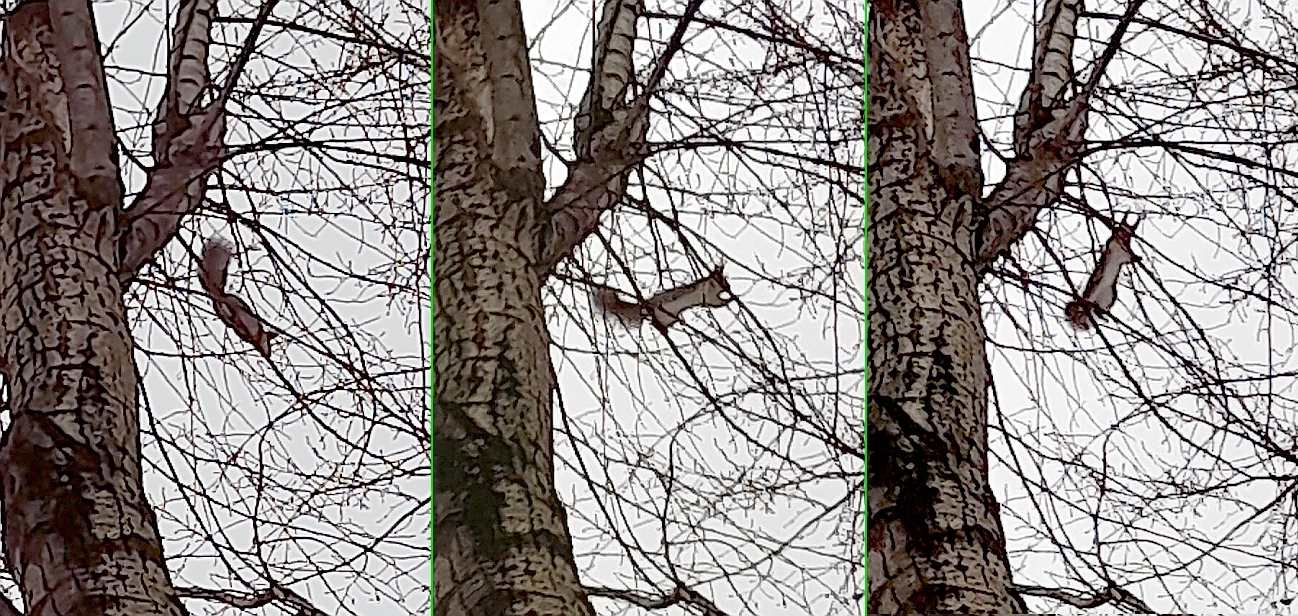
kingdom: Animalia
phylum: Chordata
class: Mammalia
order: Rodentia
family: Sciuridae
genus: Sciurus
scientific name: Sciurus vulgaris
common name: Eurasian red squirrel
